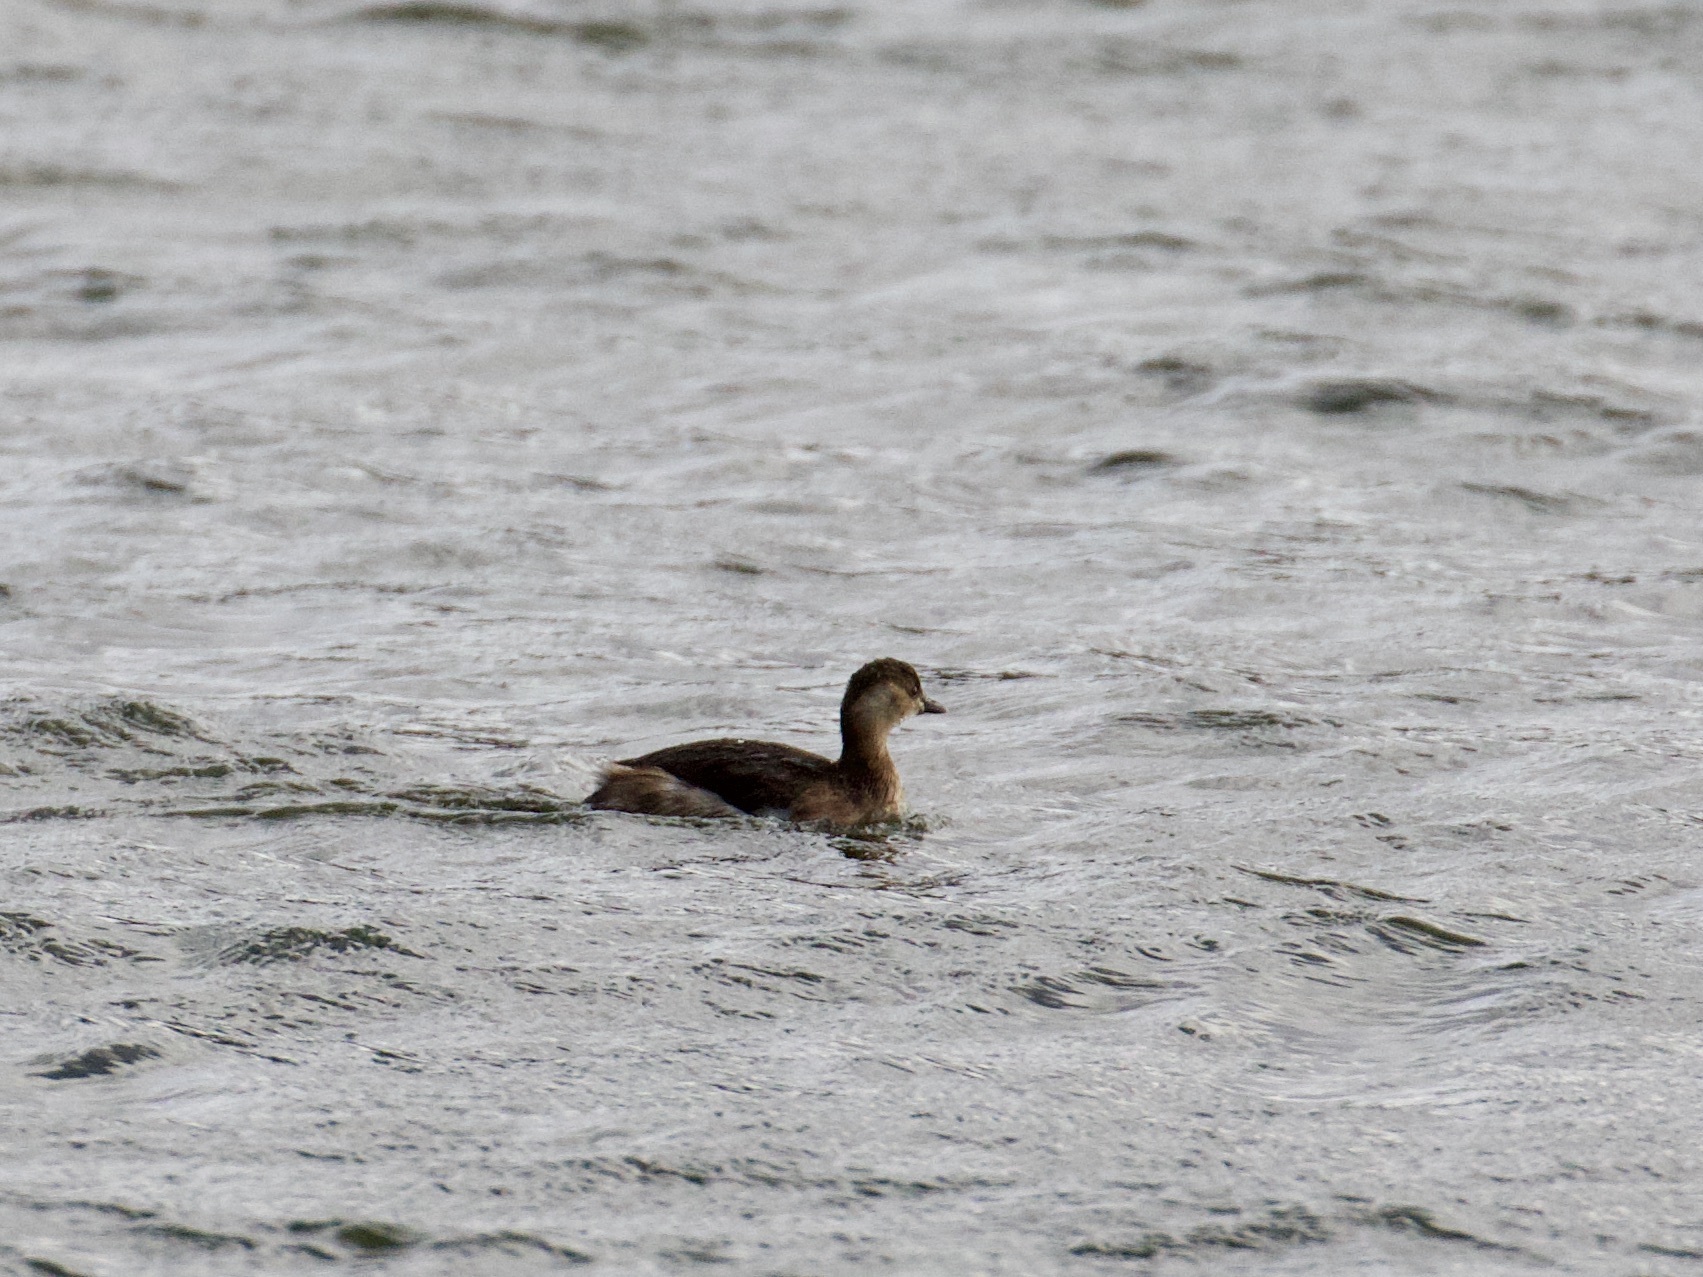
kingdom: Animalia
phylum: Chordata
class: Aves
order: Podicipediformes
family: Podicipedidae
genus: Tachybaptus
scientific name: Tachybaptus ruficollis
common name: Little grebe
